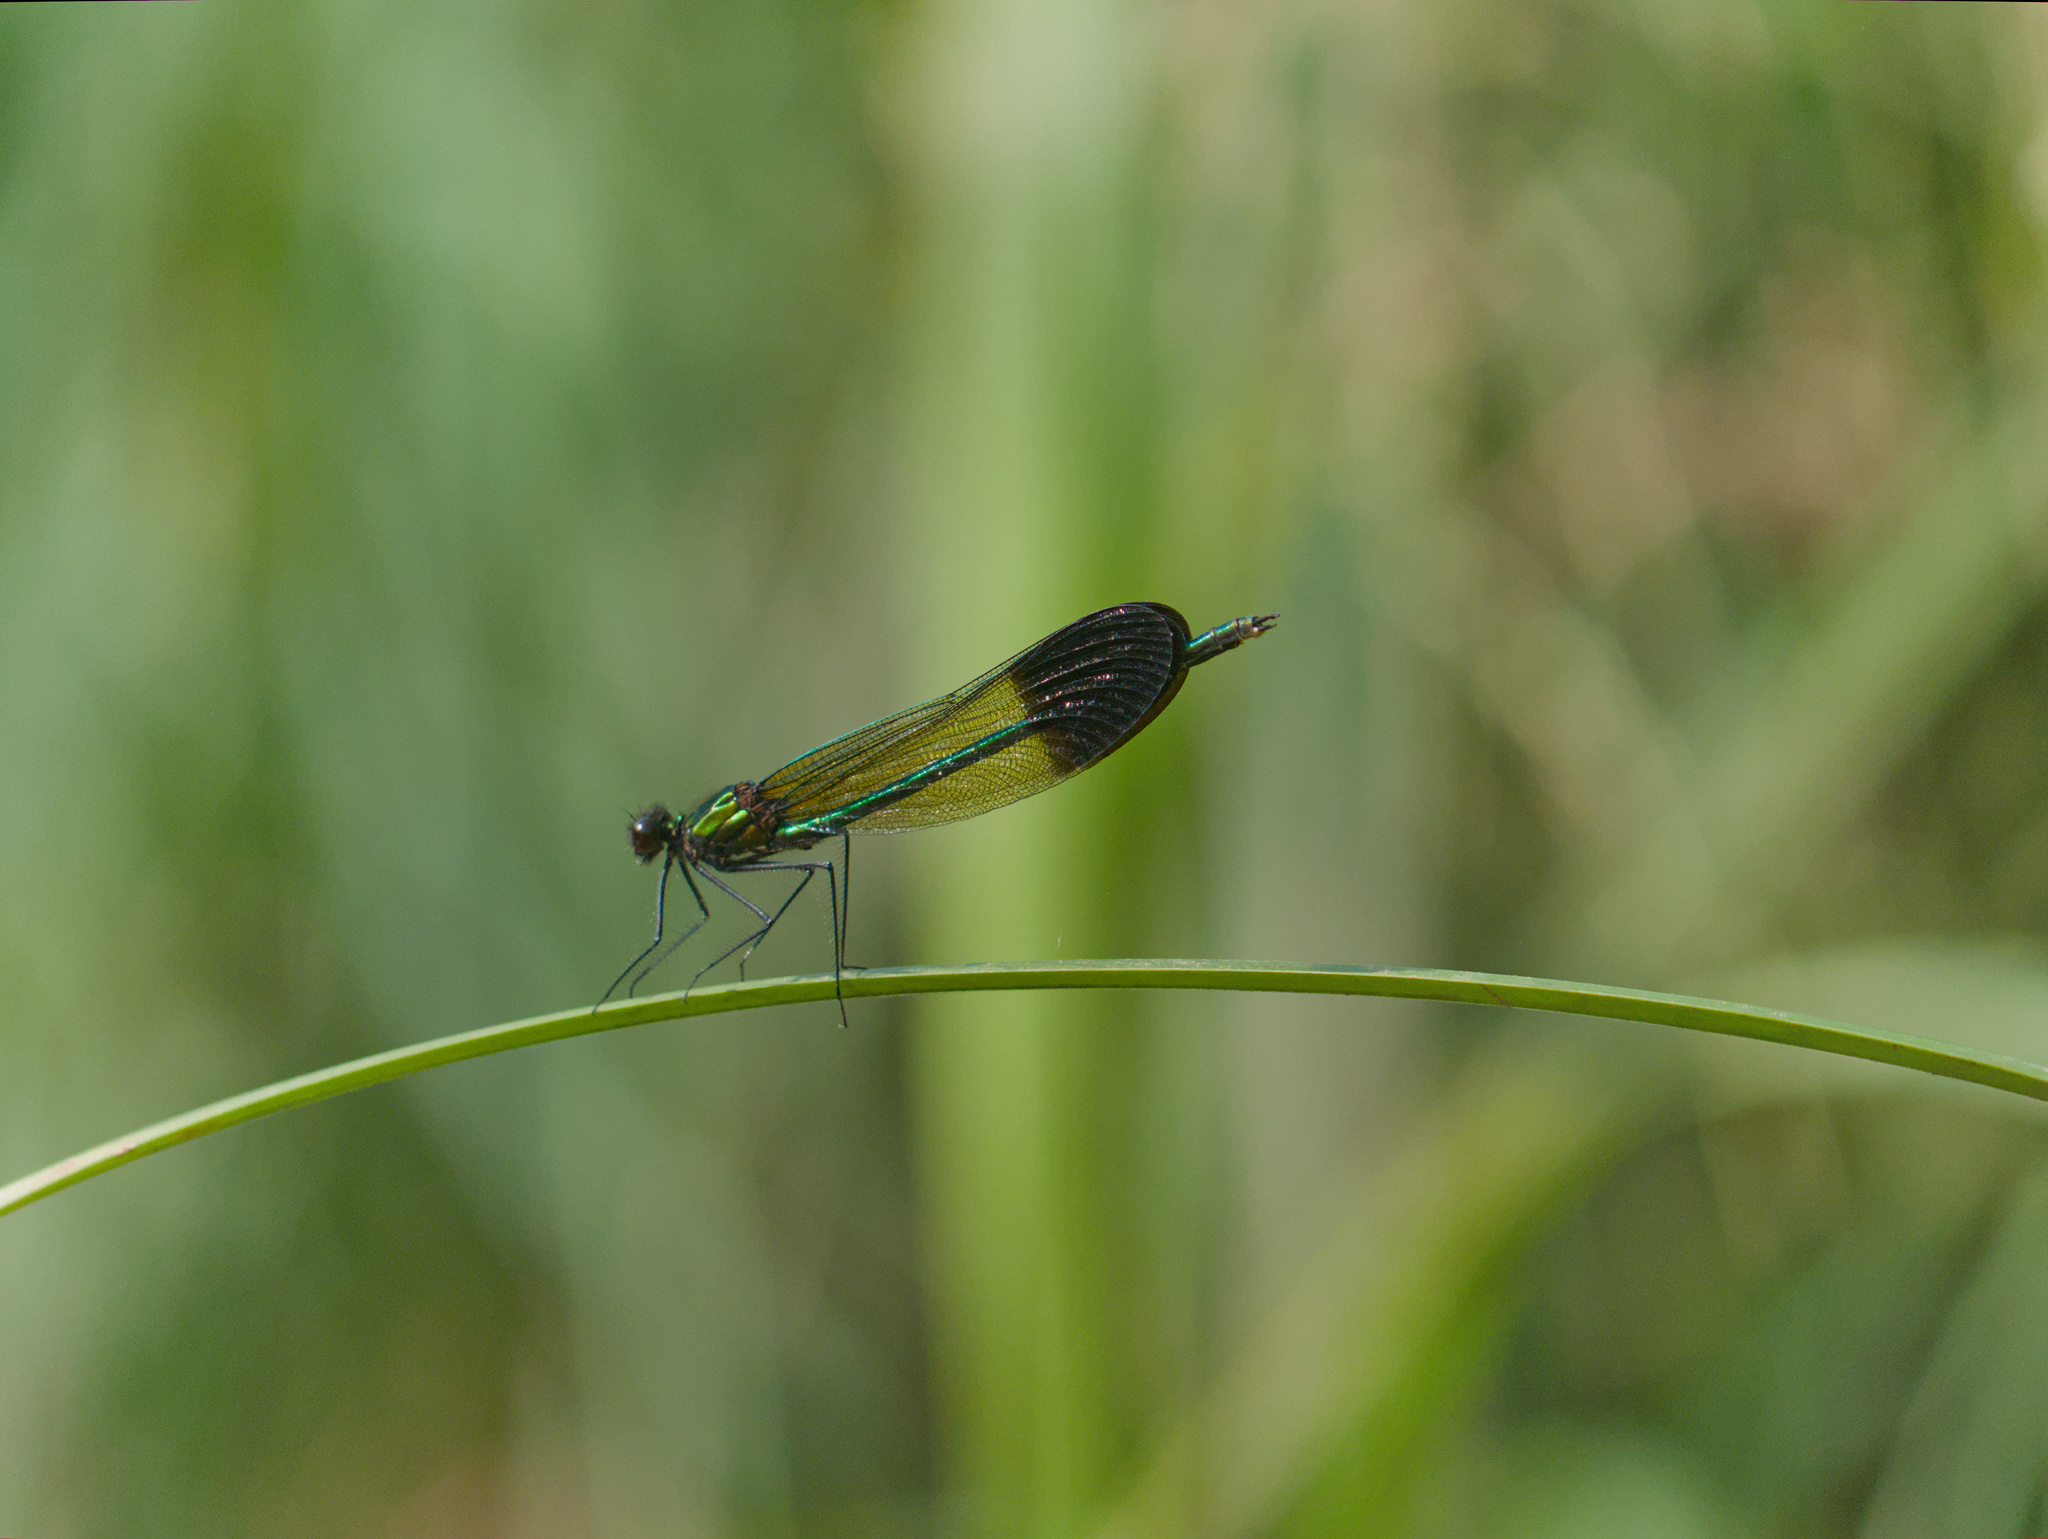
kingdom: Animalia
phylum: Arthropoda
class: Insecta
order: Odonata
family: Calopterygidae
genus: Calopteryx
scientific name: Calopteryx aequabilis
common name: River jewelwing
